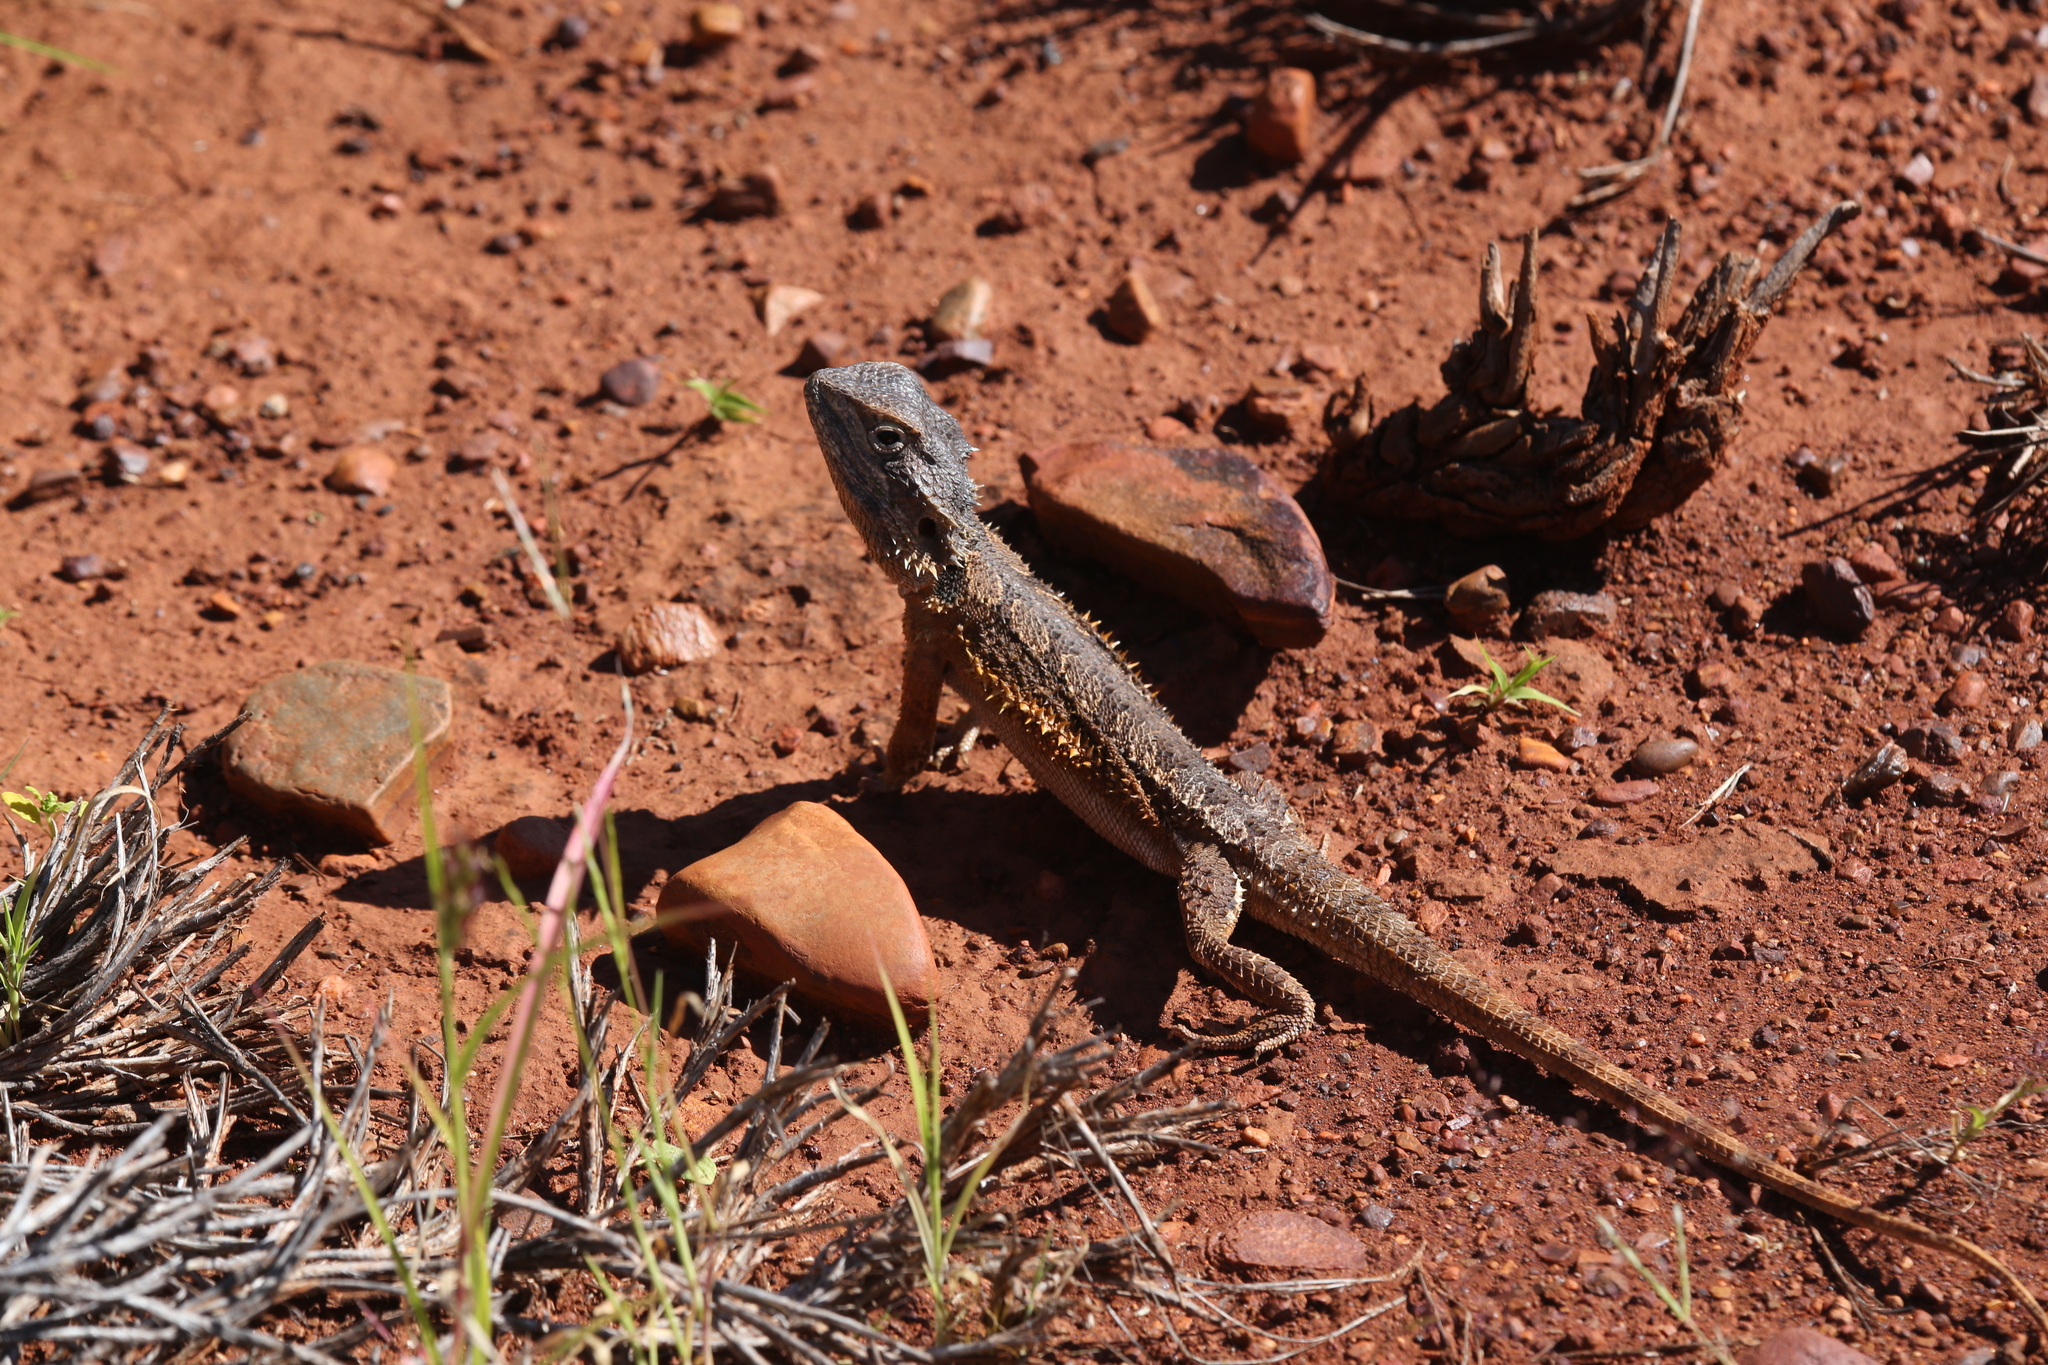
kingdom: Animalia
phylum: Chordata
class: Squamata
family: Agamidae
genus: Pogona
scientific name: Pogona minor
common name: Dwarf bearded dragon
